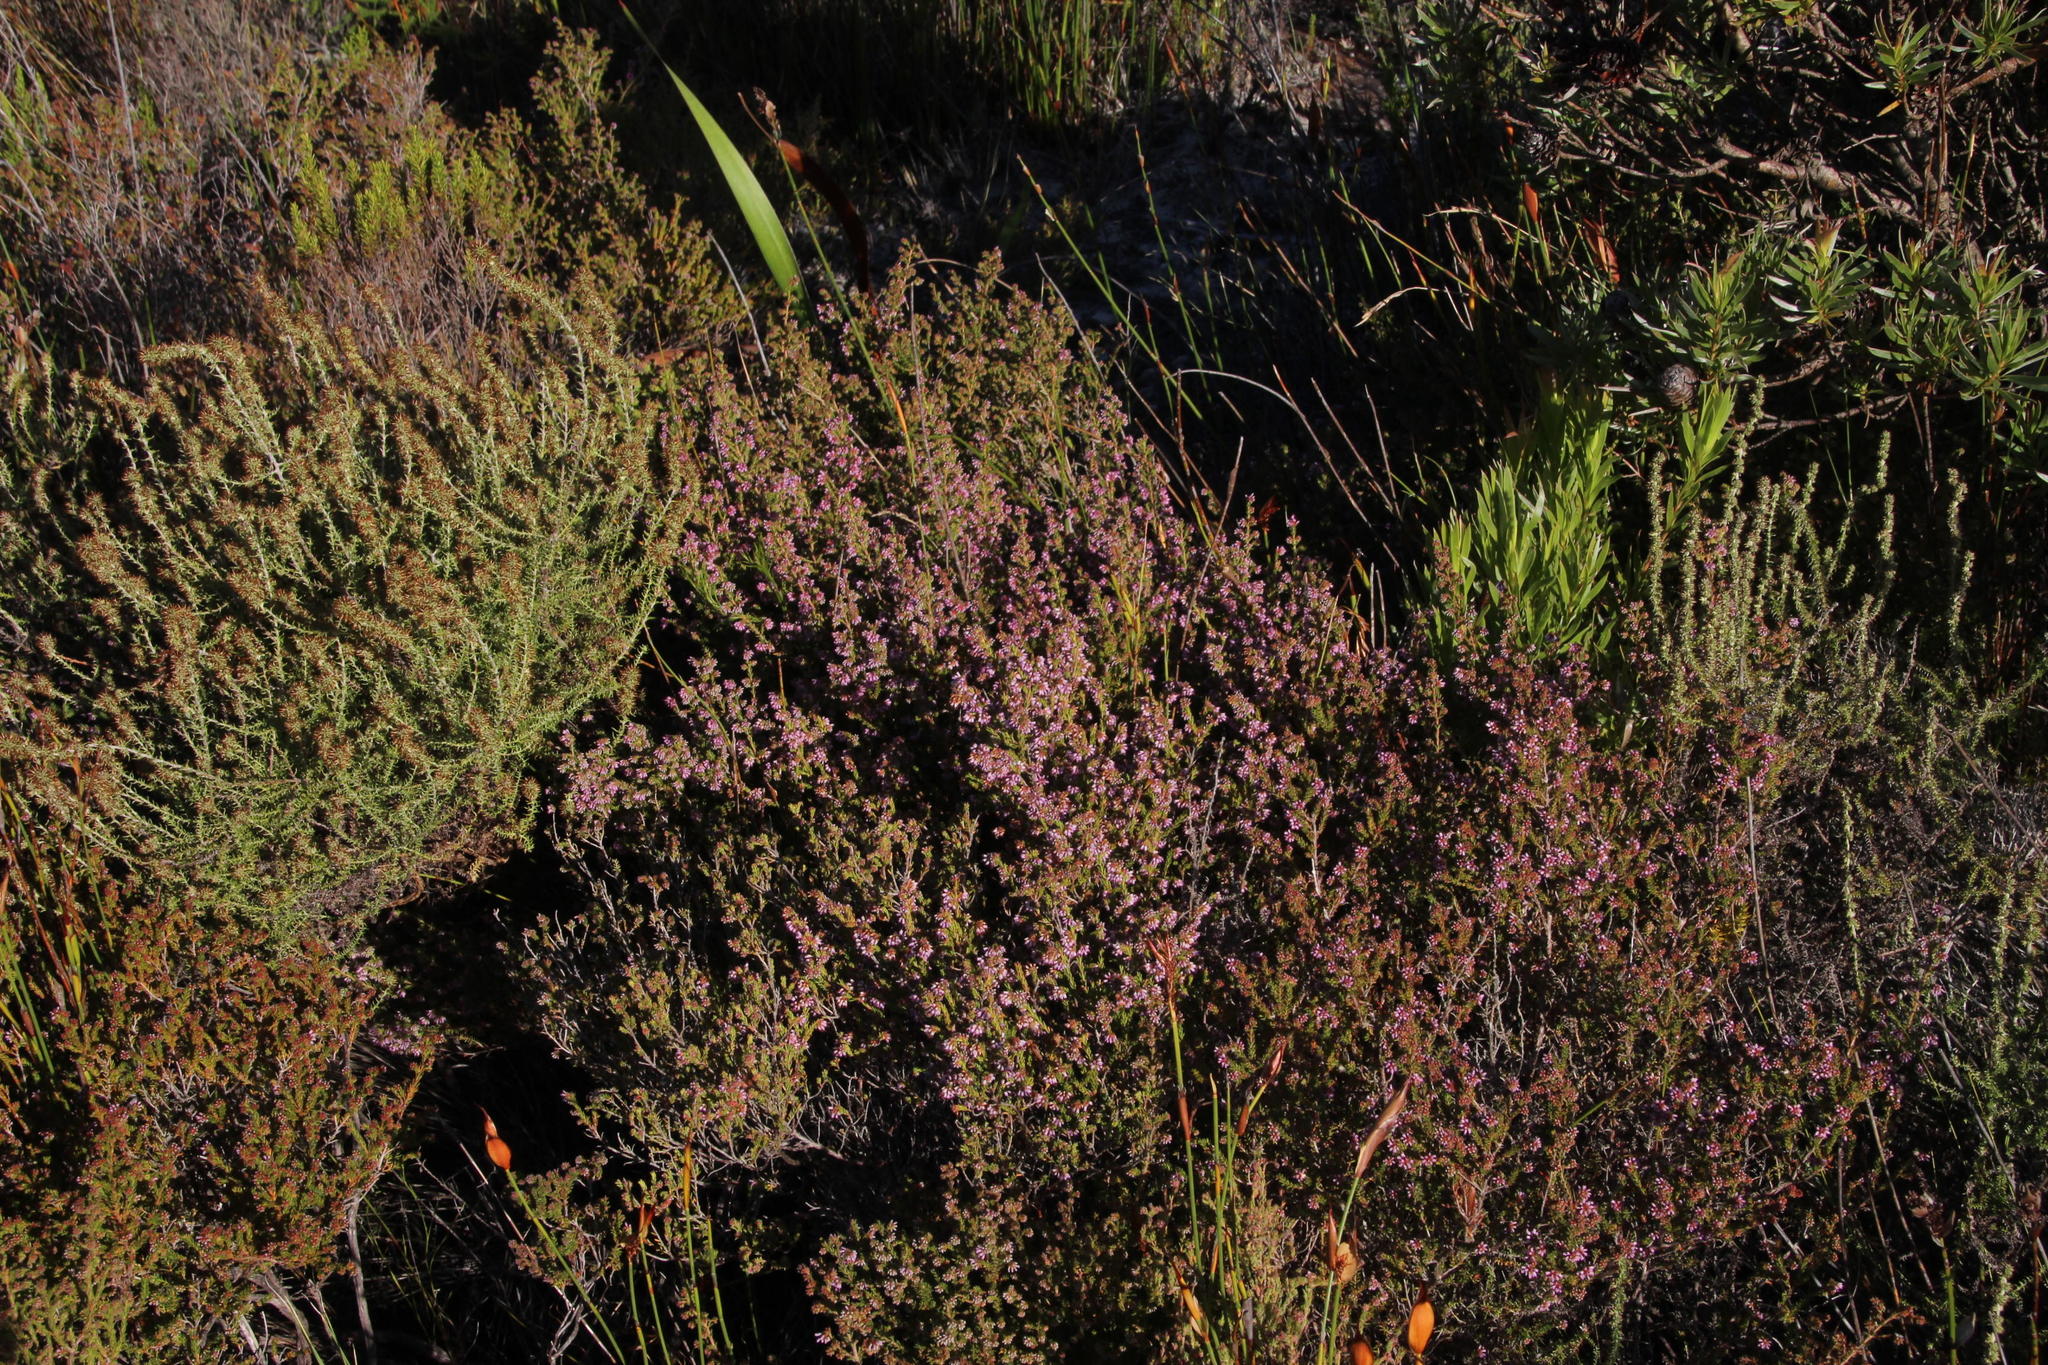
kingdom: Plantae
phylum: Tracheophyta
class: Magnoliopsida
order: Ericales
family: Ericaceae
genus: Erica
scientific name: Erica equisetifolia
